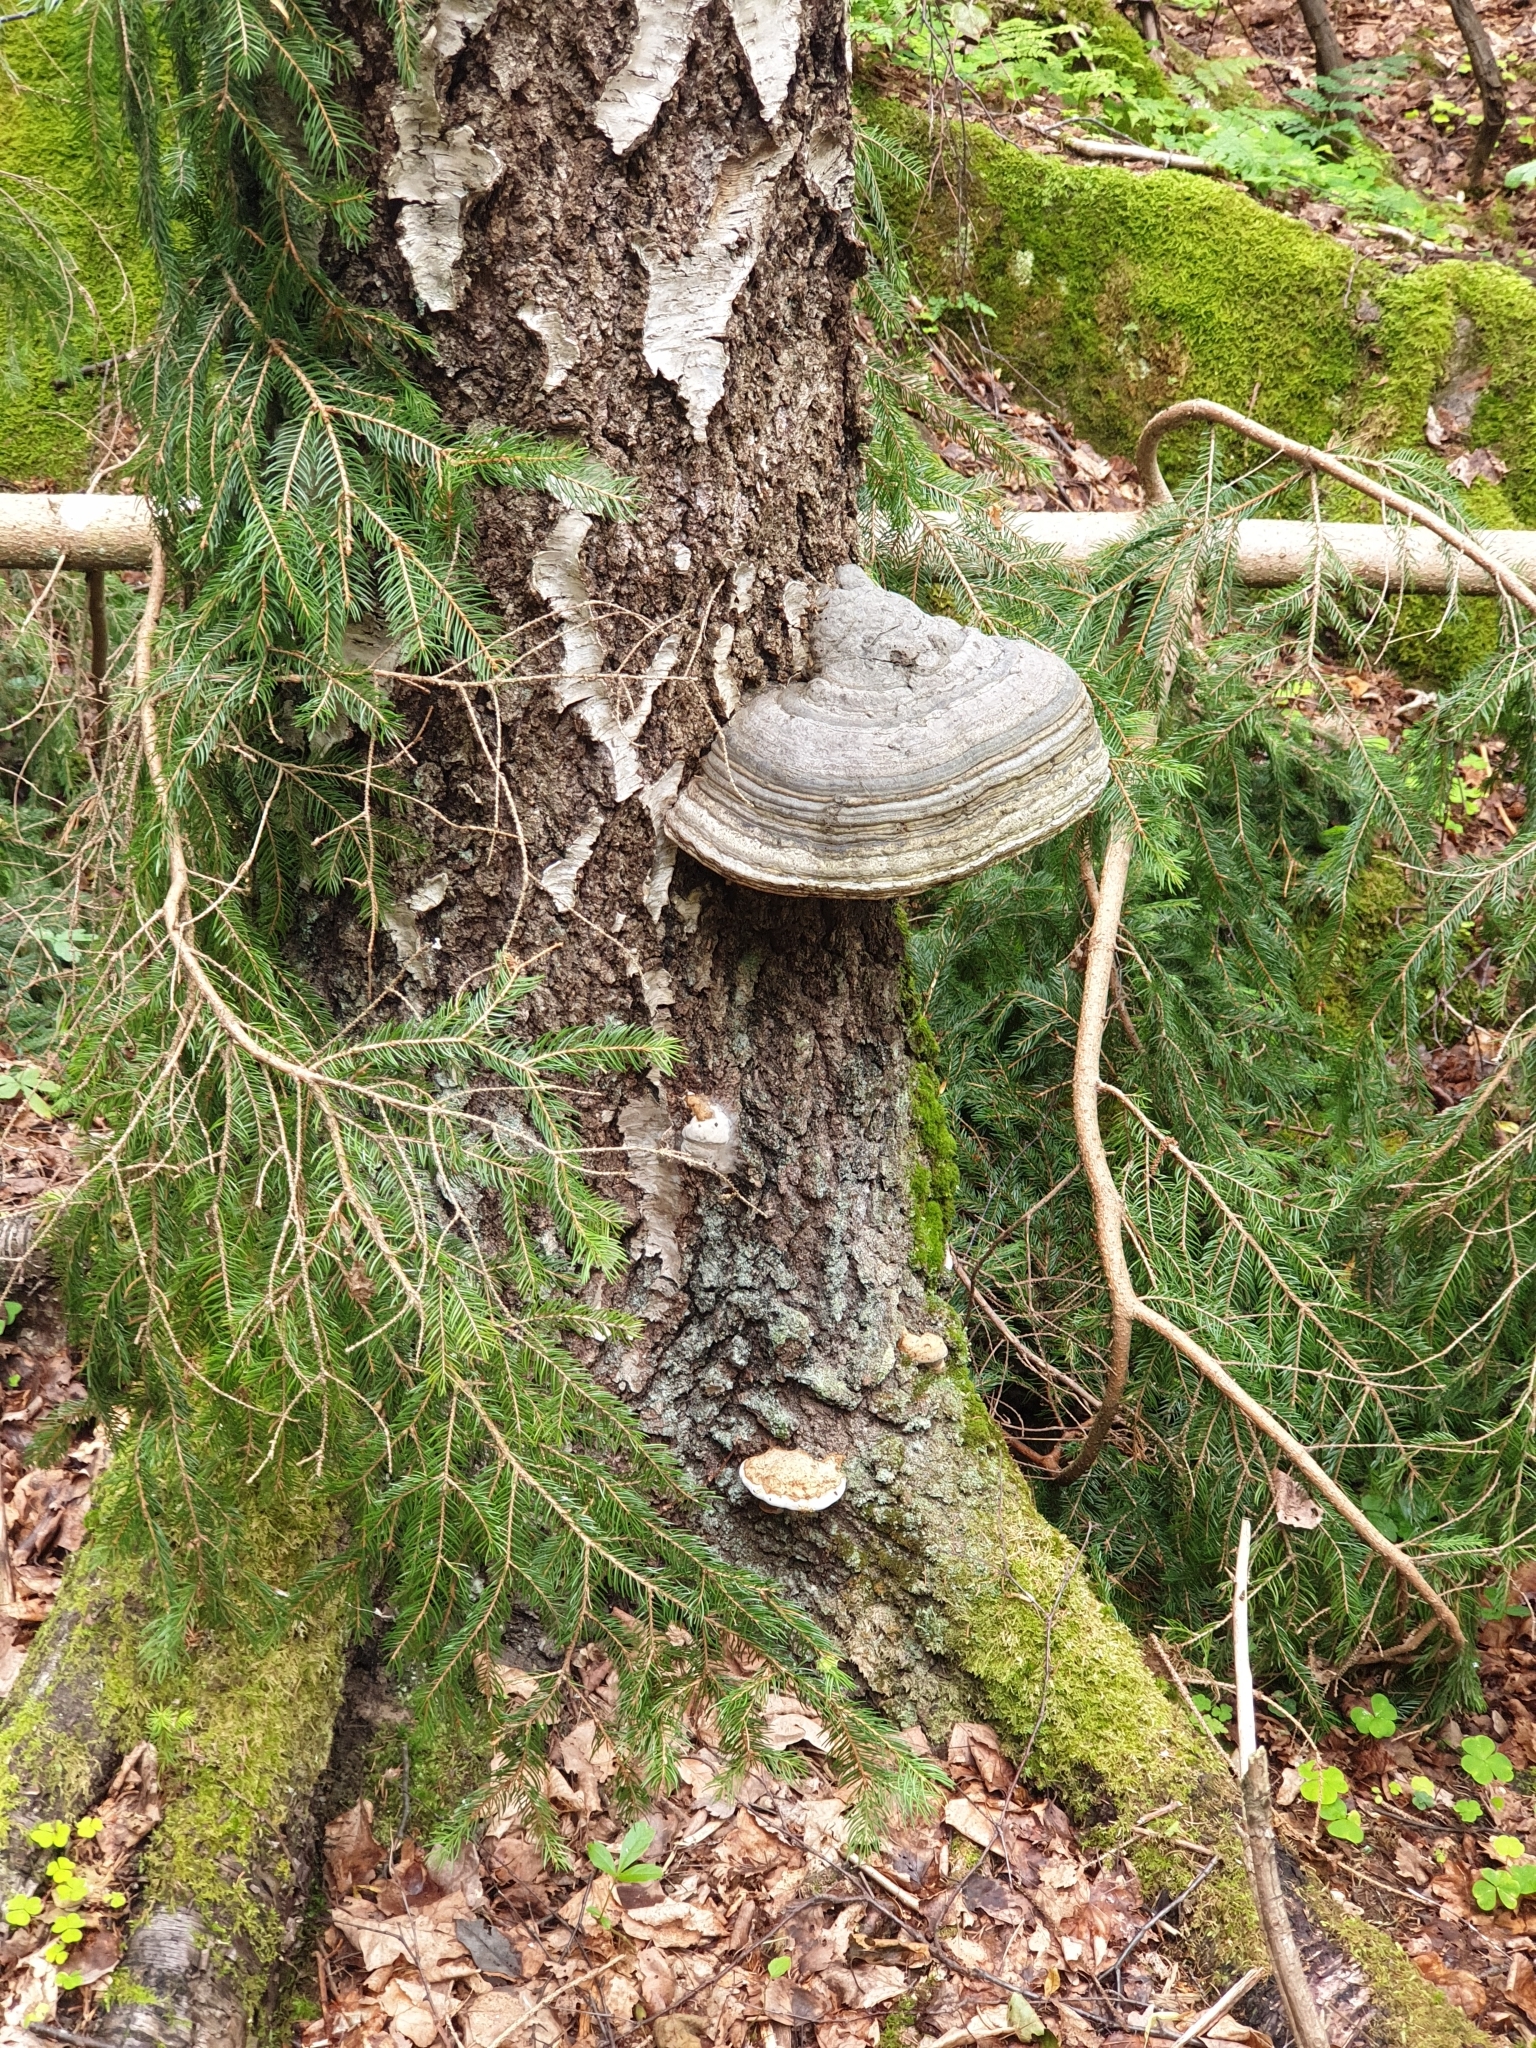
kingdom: Fungi
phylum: Basidiomycota
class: Agaricomycetes
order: Polyporales
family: Polyporaceae
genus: Fomes
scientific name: Fomes fomentarius
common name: Hoof fungus
